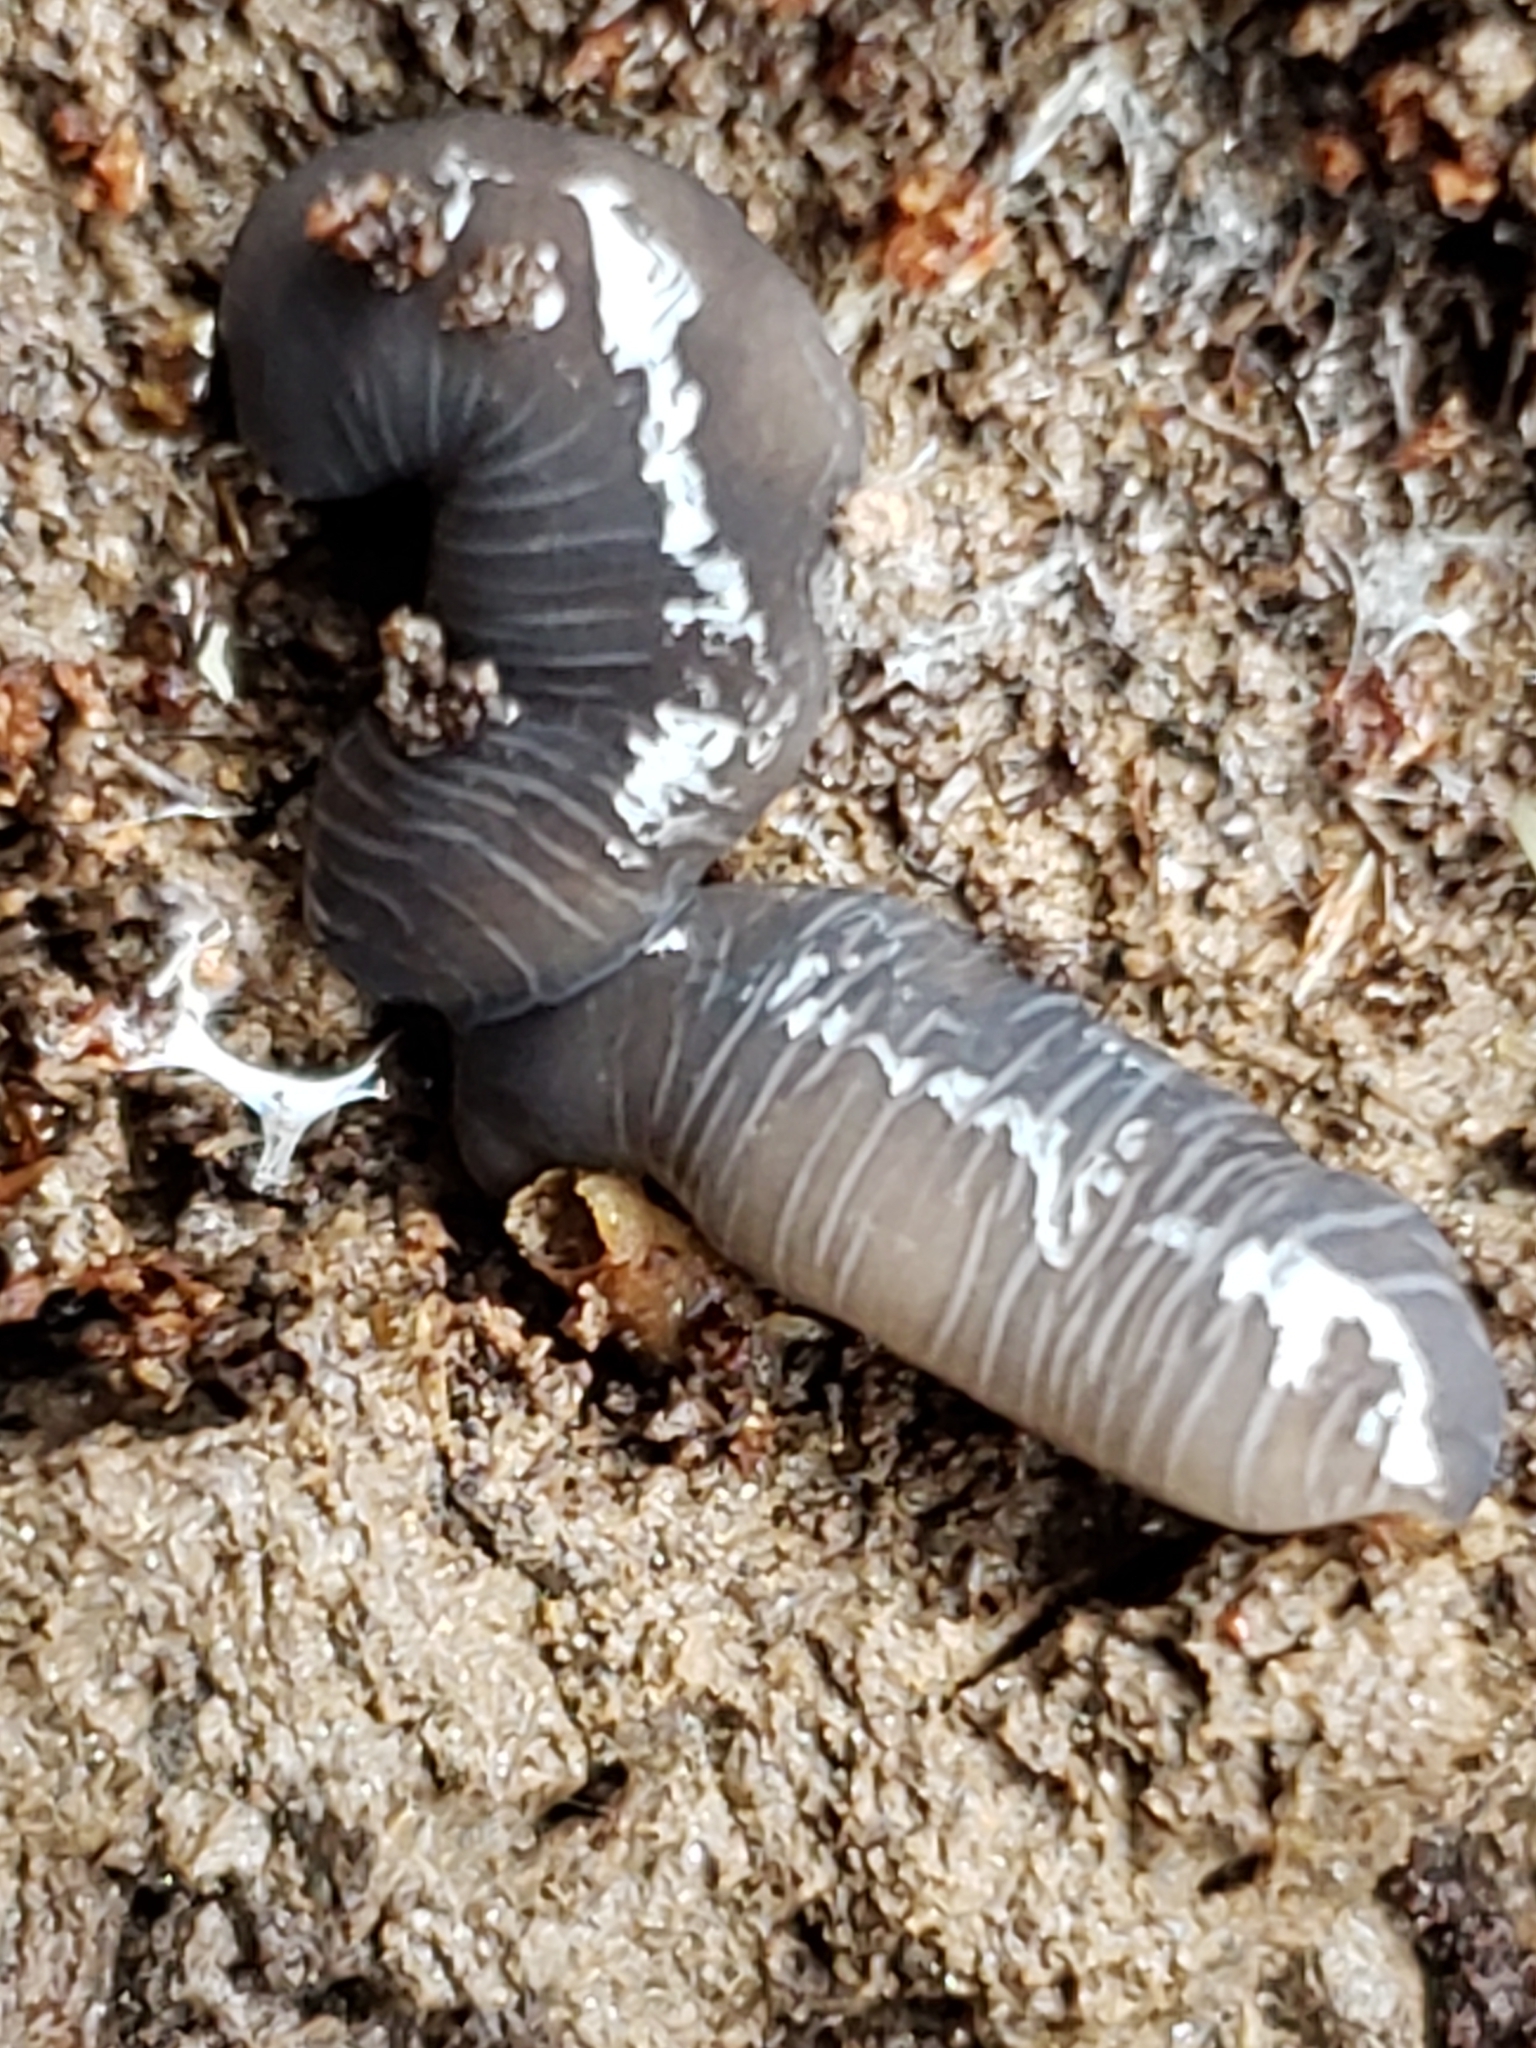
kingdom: Animalia
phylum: Platyhelminthes
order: Tricladida
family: Geoplanidae
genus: Microplana
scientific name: Microplana terrestris
